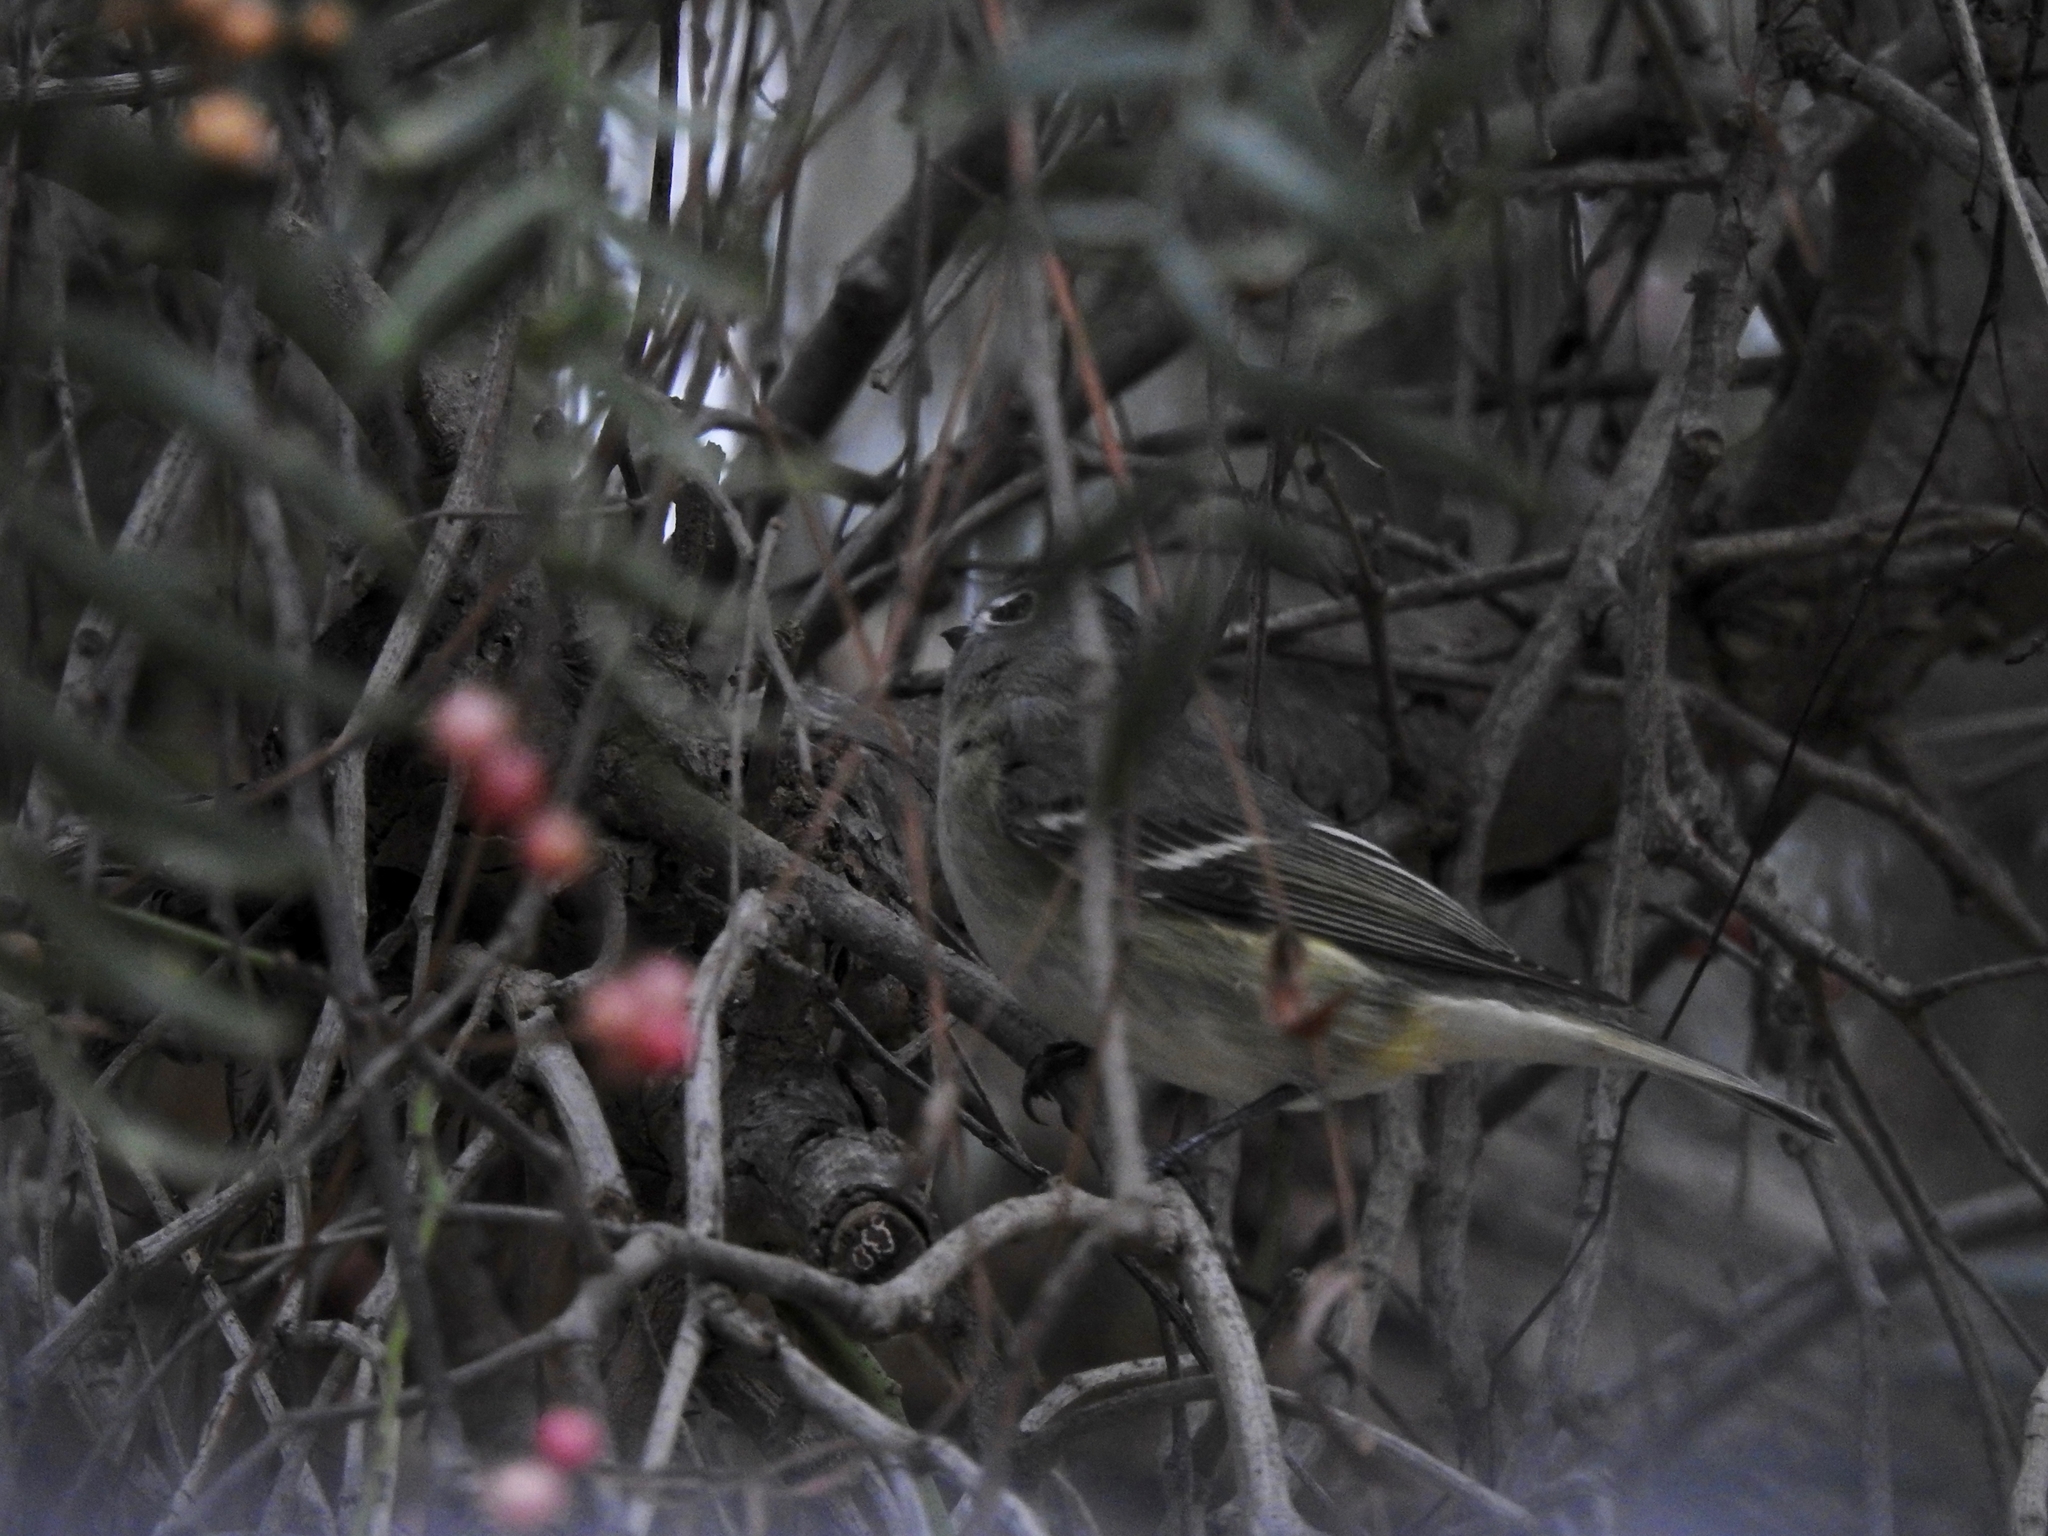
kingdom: Animalia
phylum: Chordata
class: Aves
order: Passeriformes
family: Vireonidae
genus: Vireo
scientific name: Vireo cassinii
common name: Cassin's vireo
